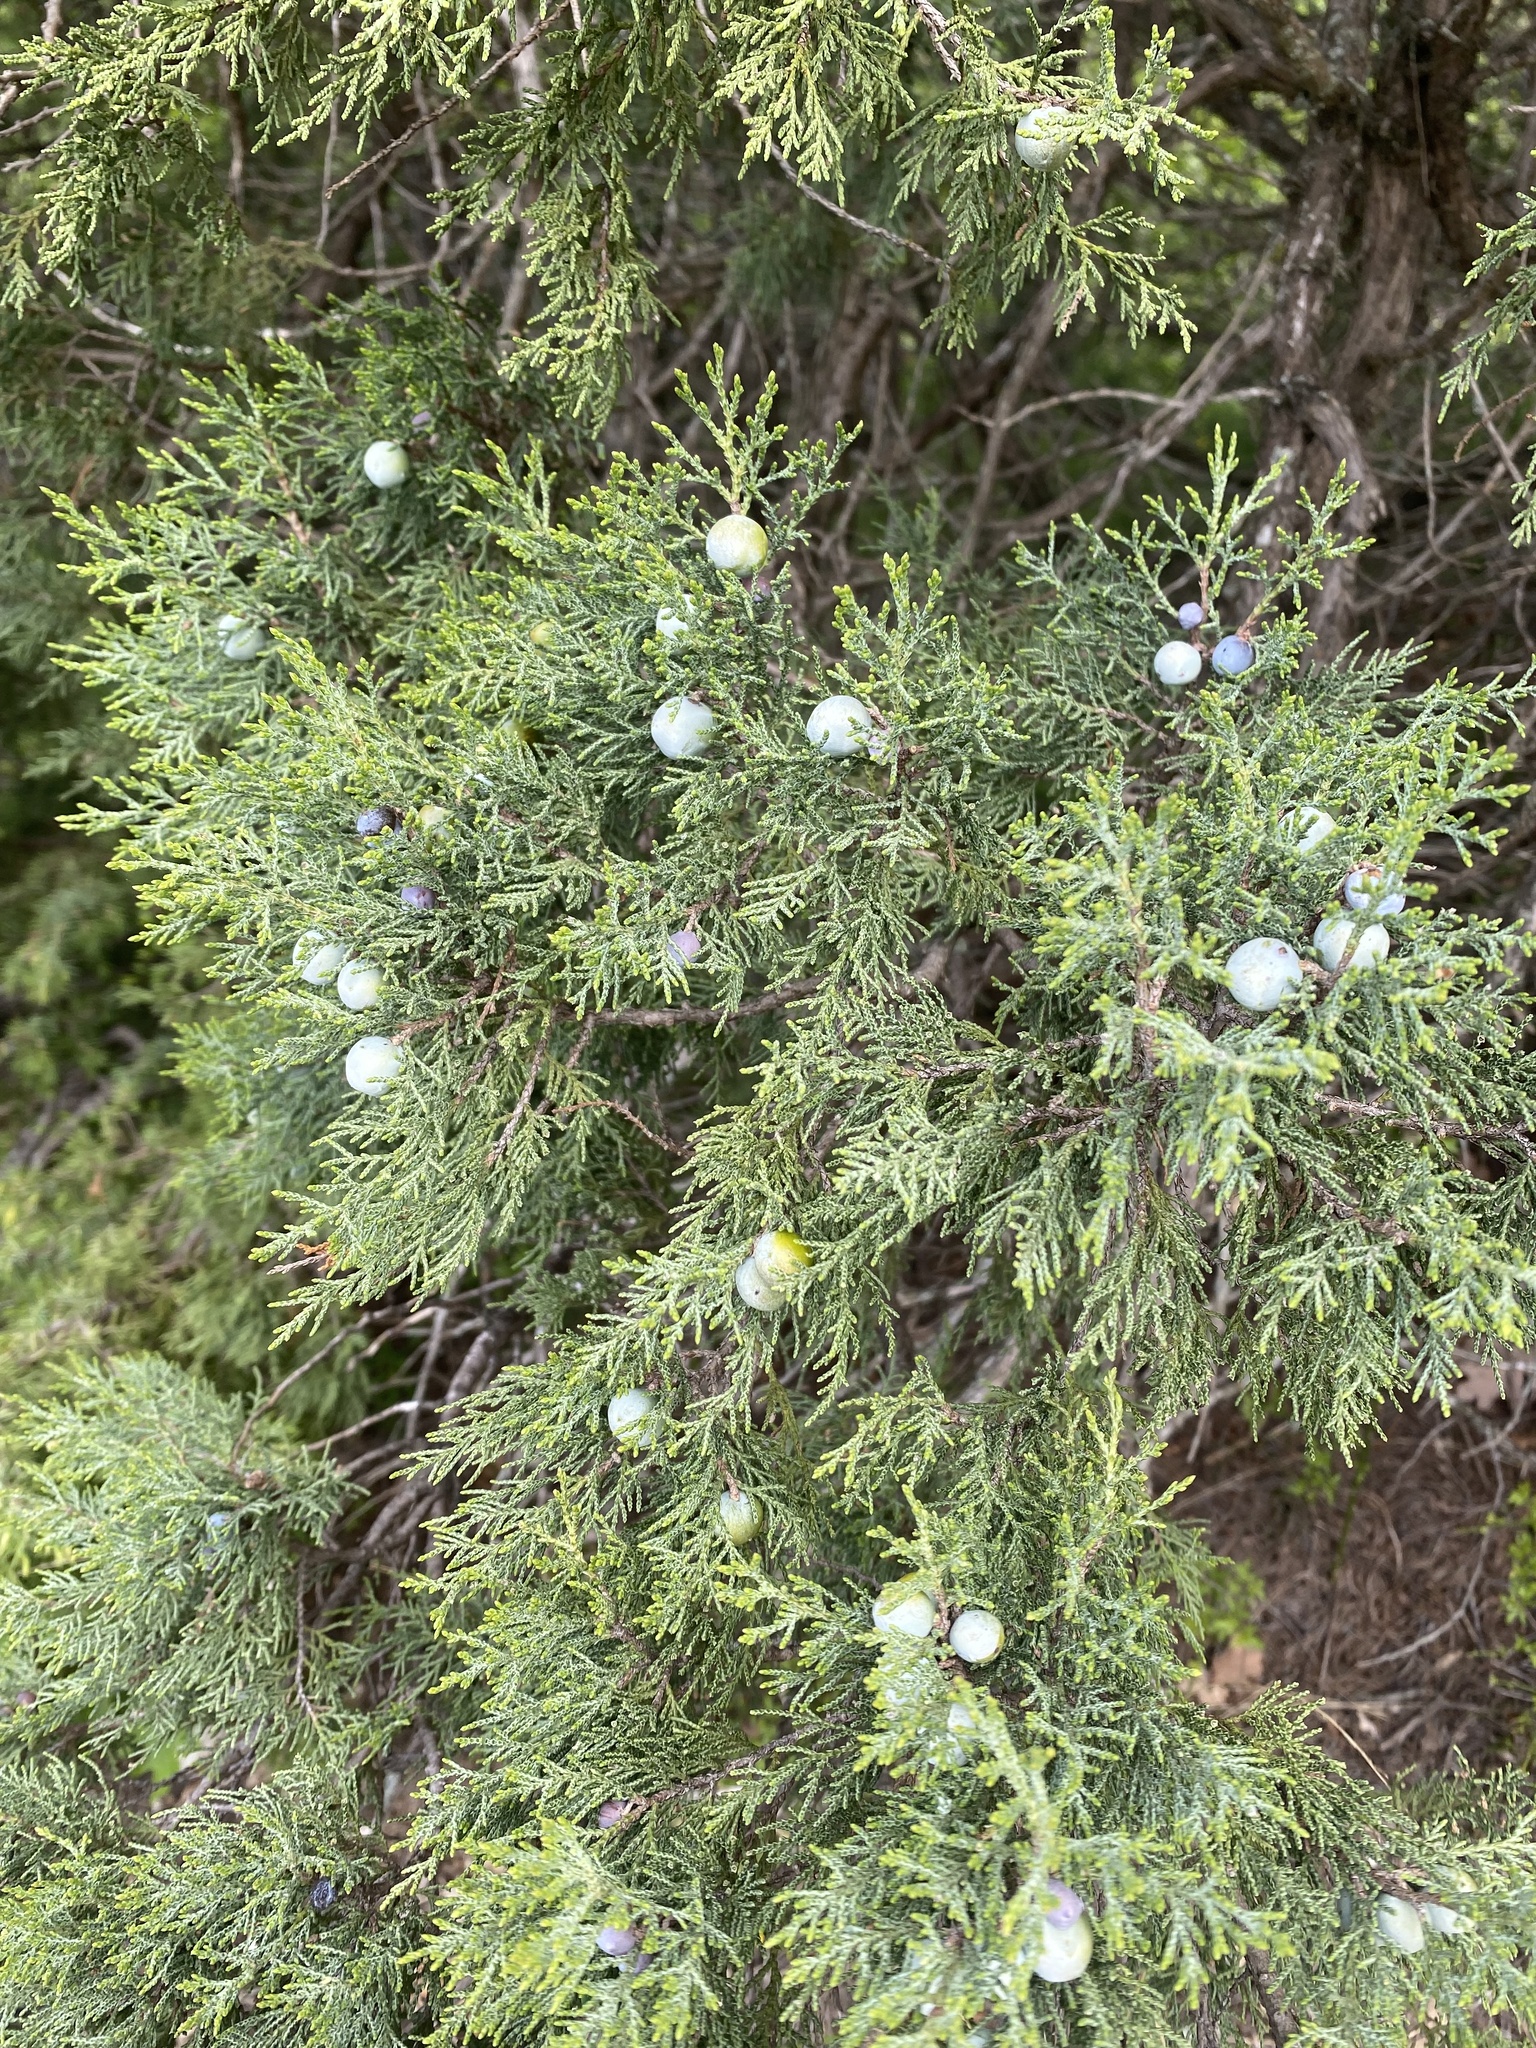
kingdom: Plantae
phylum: Tracheophyta
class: Pinopsida
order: Pinales
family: Cupressaceae
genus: Juniperus
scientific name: Juniperus excelsa
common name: Crimean juniper
